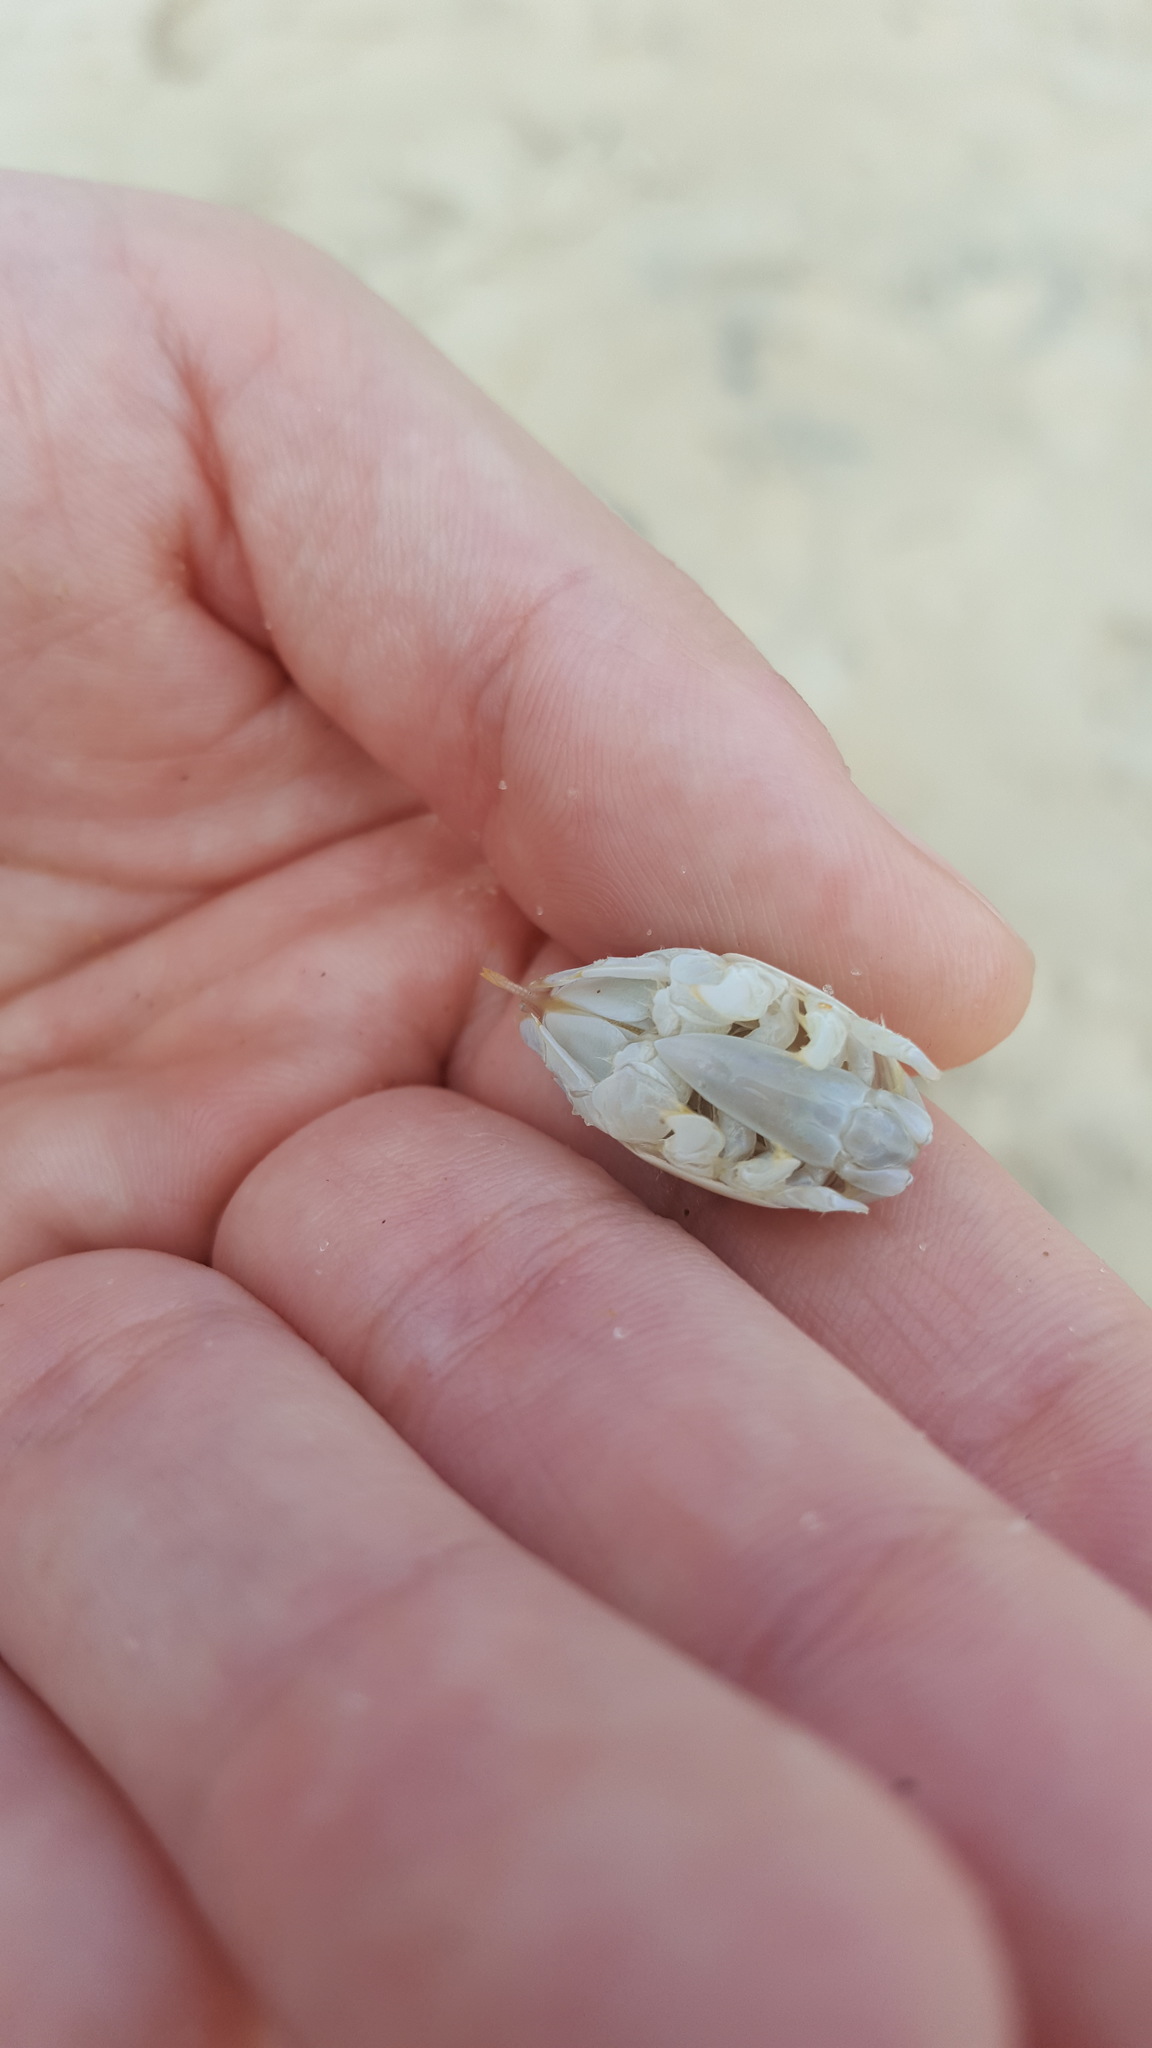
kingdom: Animalia
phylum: Arthropoda
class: Malacostraca
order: Decapoda
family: Hippidae
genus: Emerita
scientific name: Emerita talpoida
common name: Atlantic sand crab
